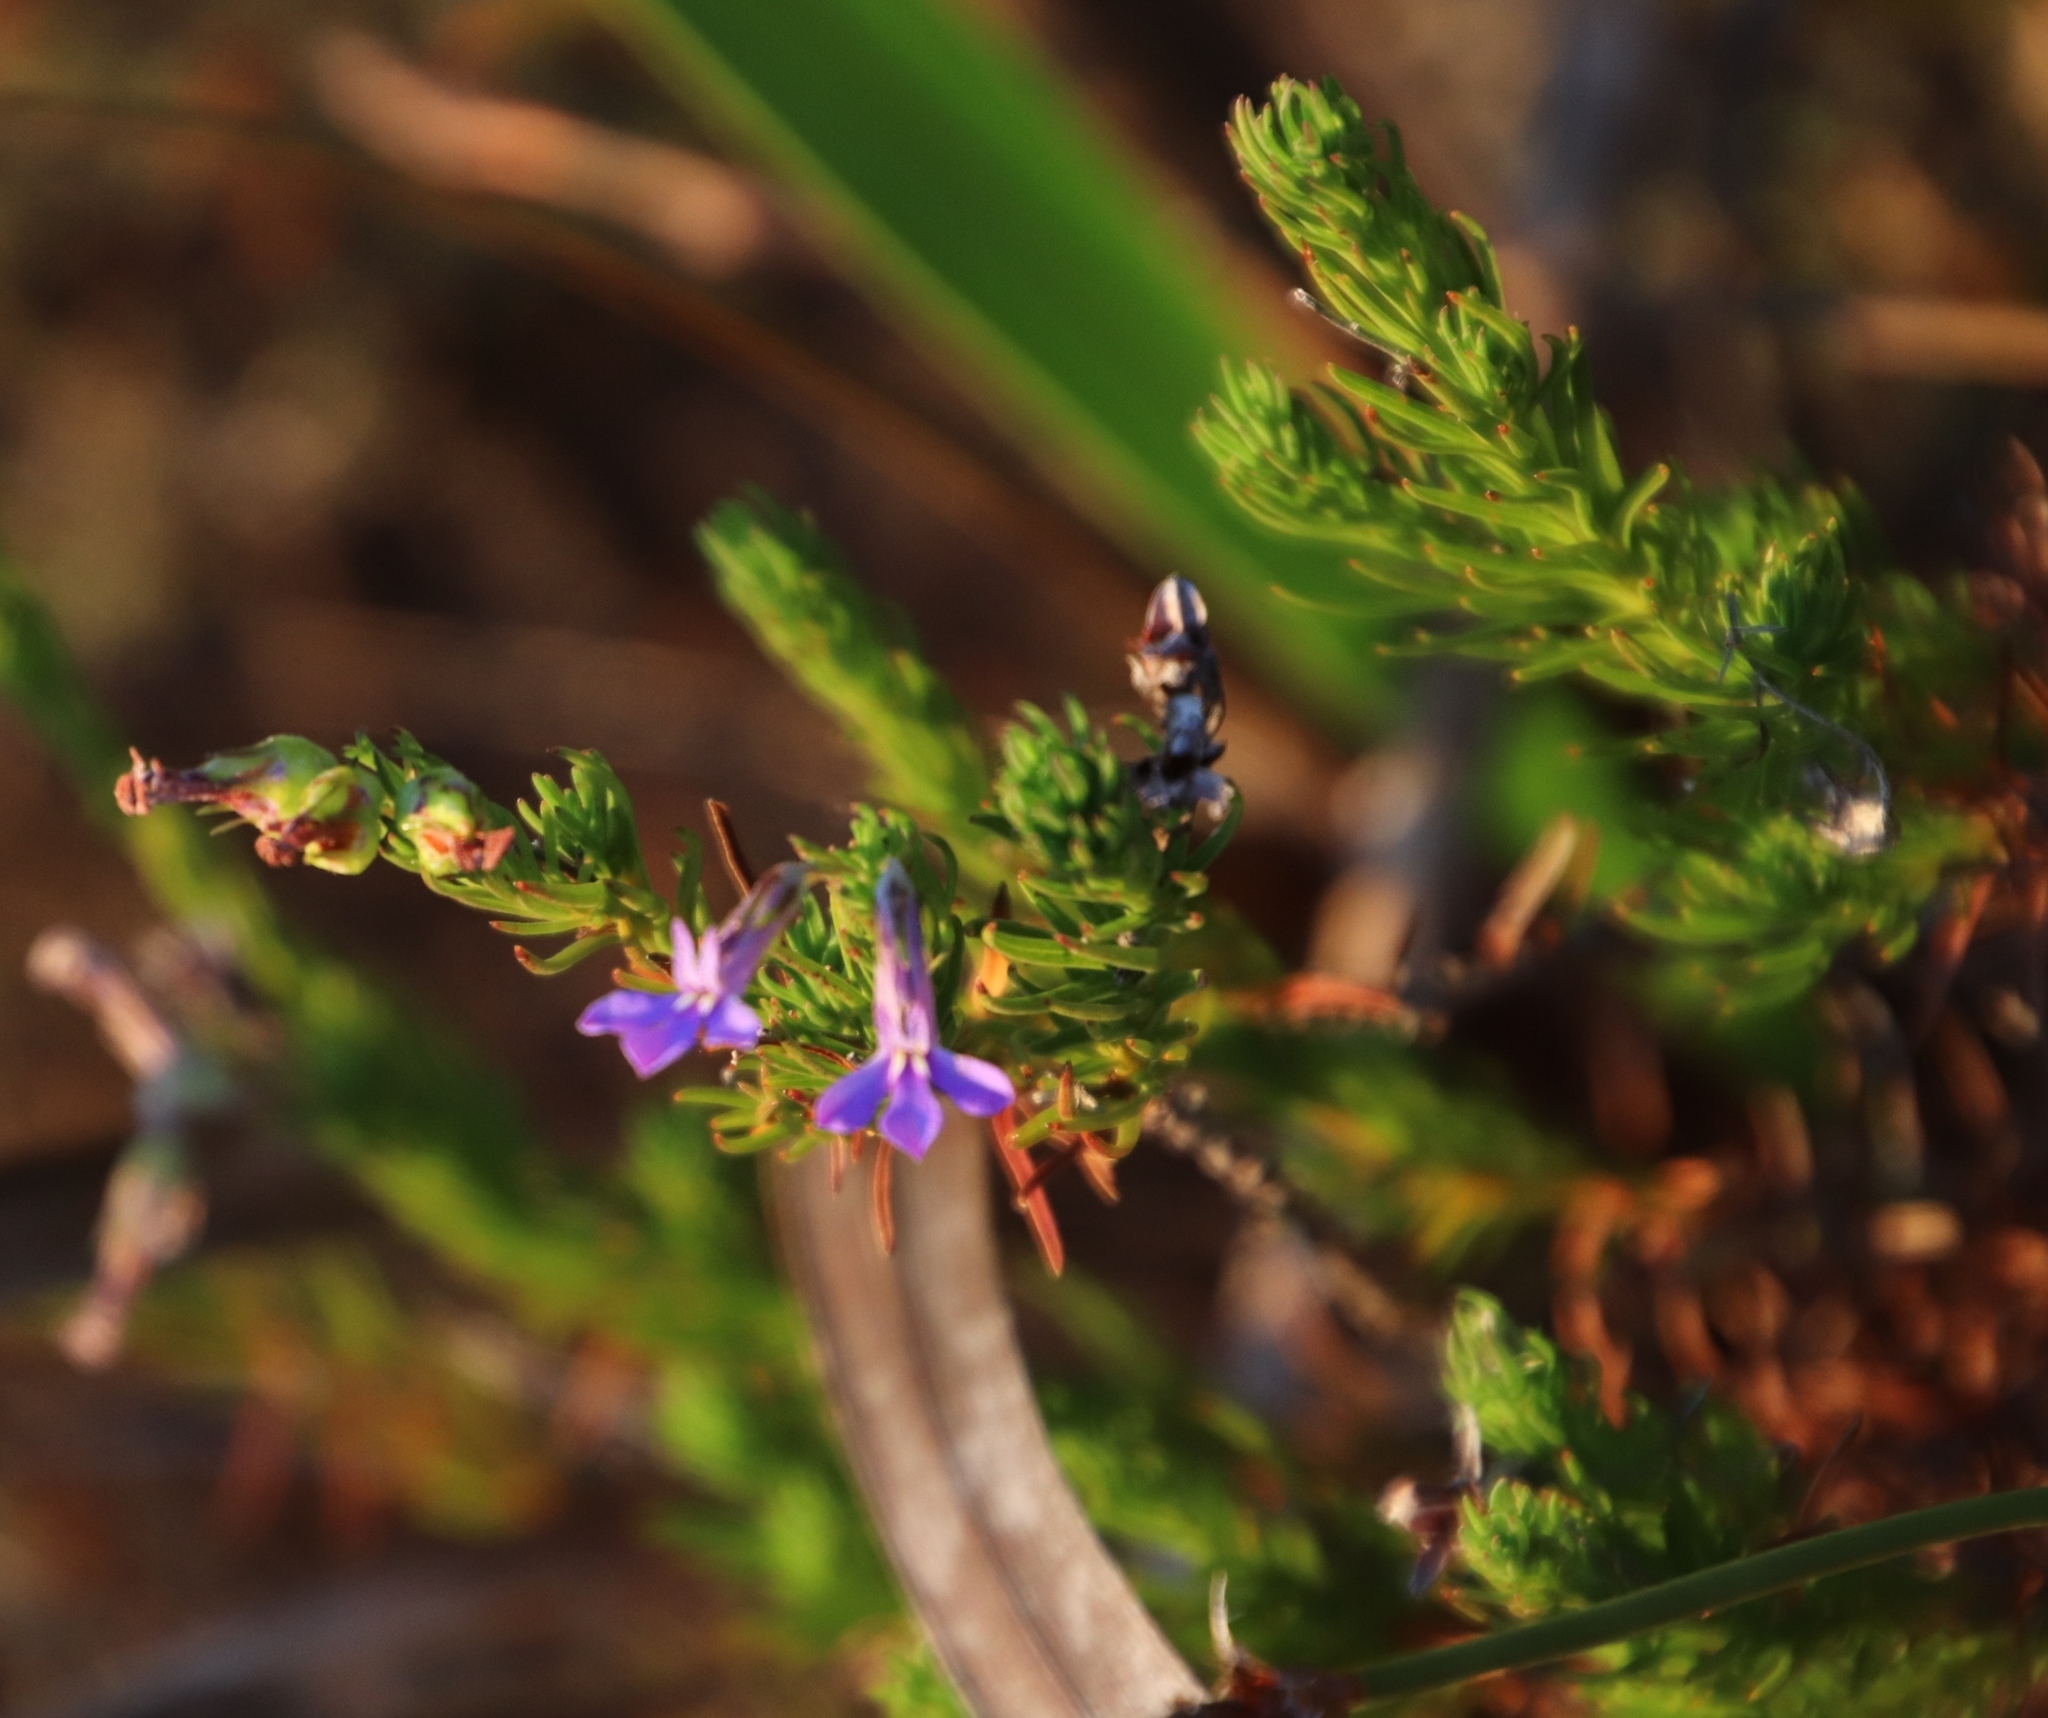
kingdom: Plantae
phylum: Tracheophyta
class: Magnoliopsida
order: Asterales
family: Campanulaceae
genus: Lobelia
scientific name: Lobelia pinifolia
